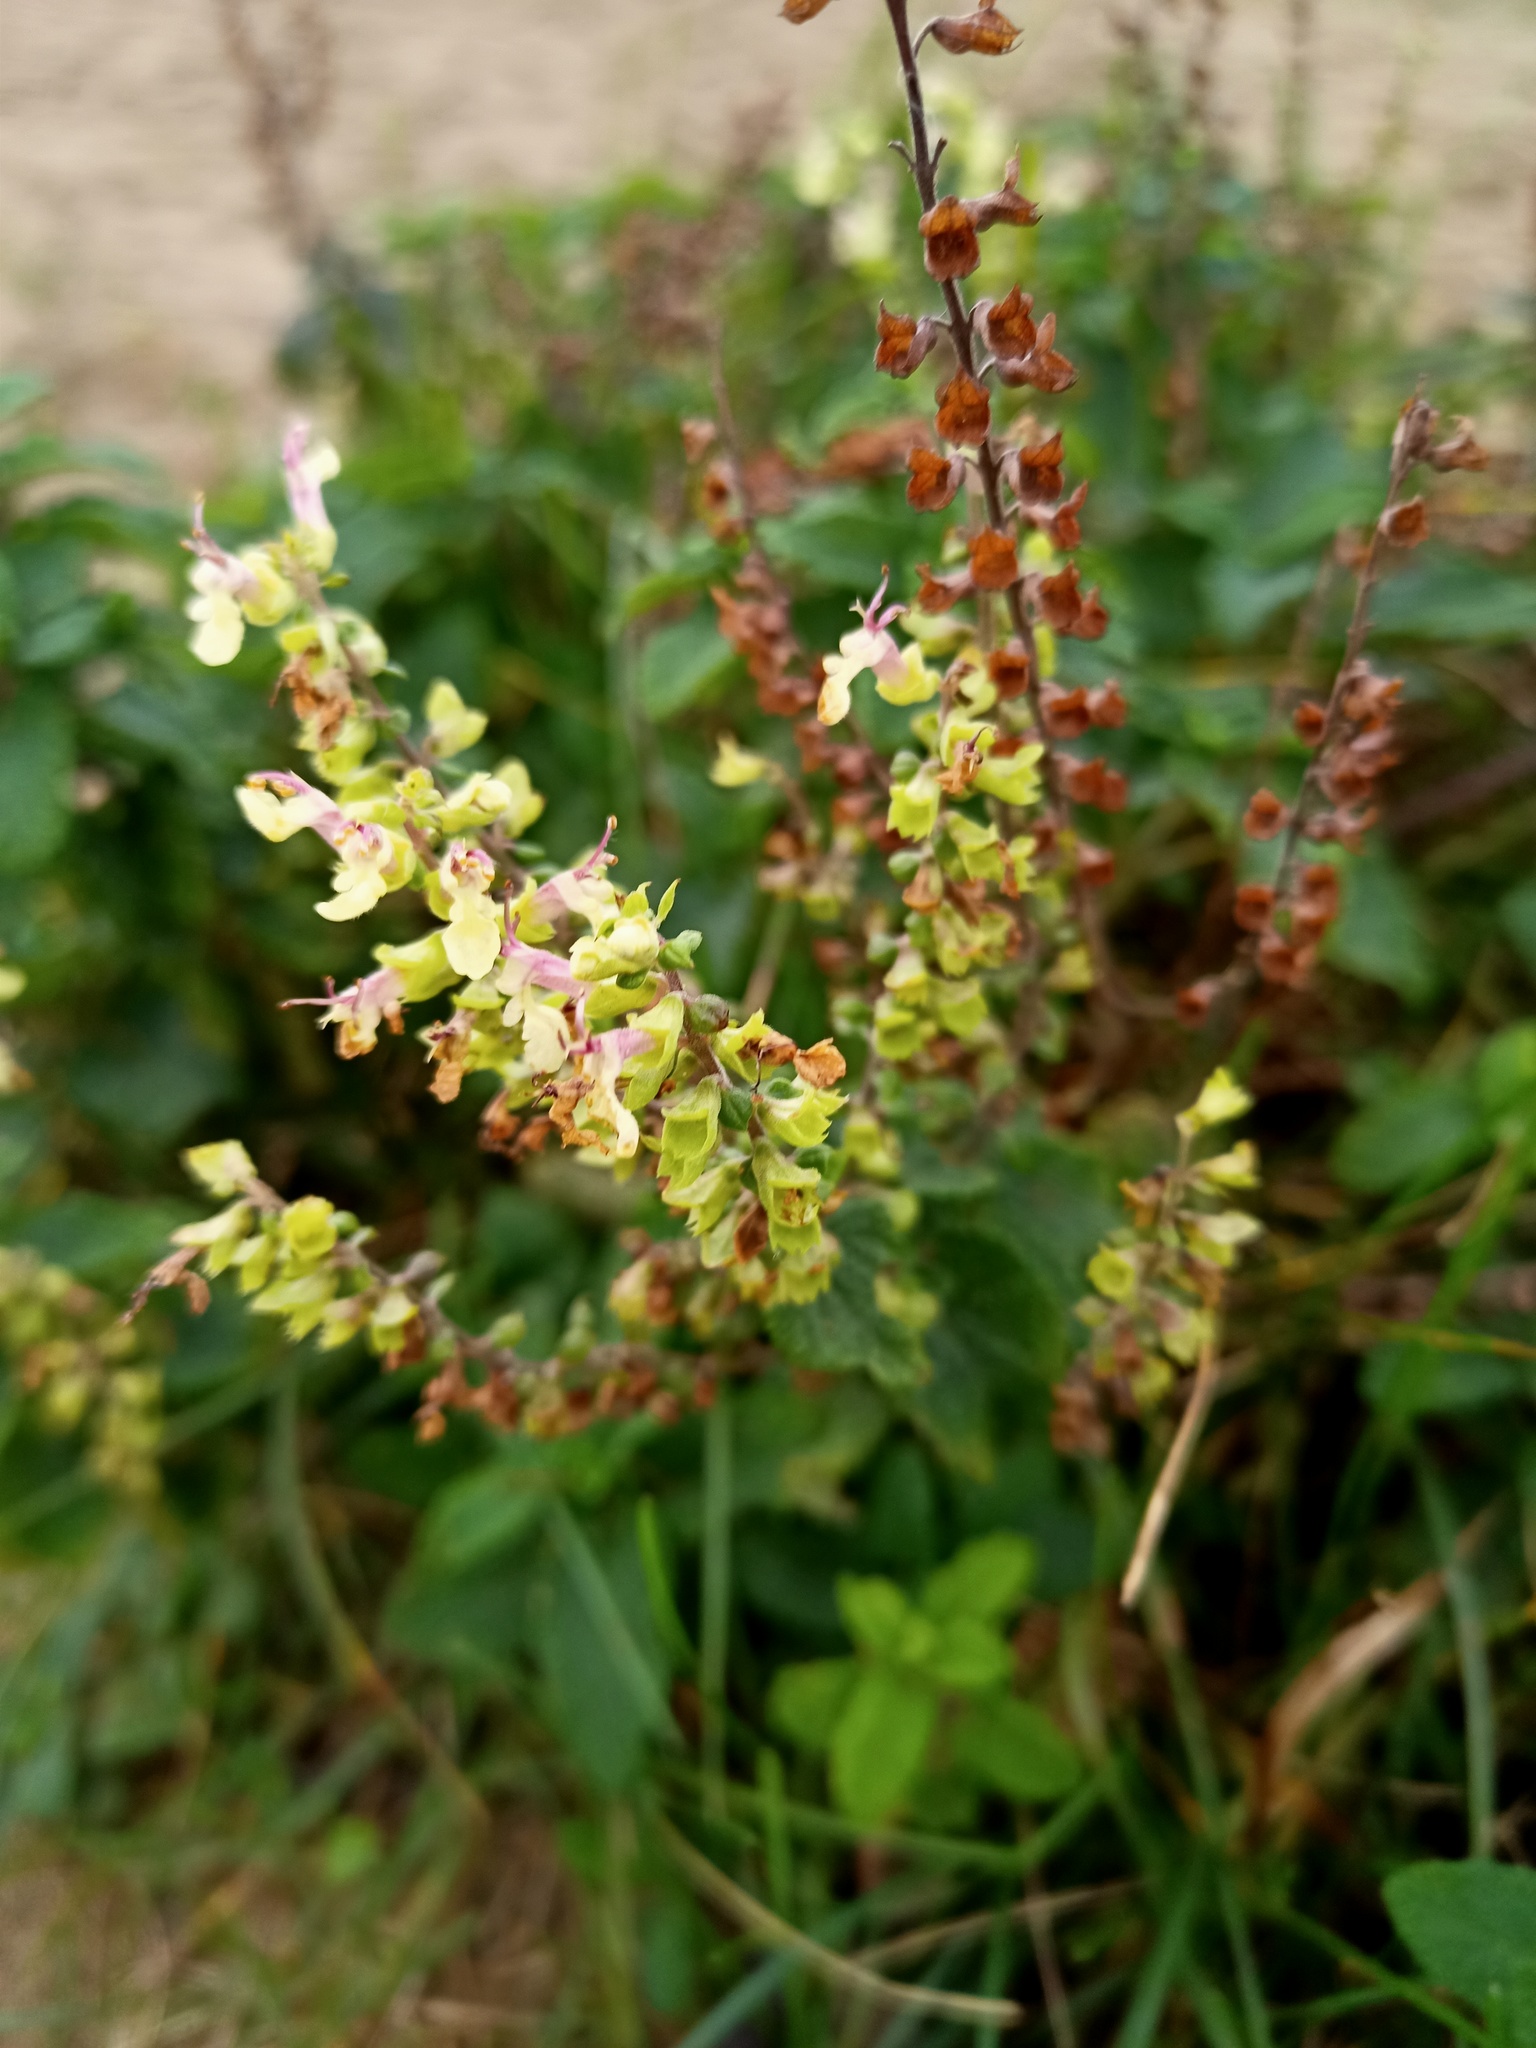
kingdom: Plantae
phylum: Tracheophyta
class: Magnoliopsida
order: Lamiales
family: Lamiaceae
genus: Teucrium
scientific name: Teucrium scorodonia
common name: Woodland germander
